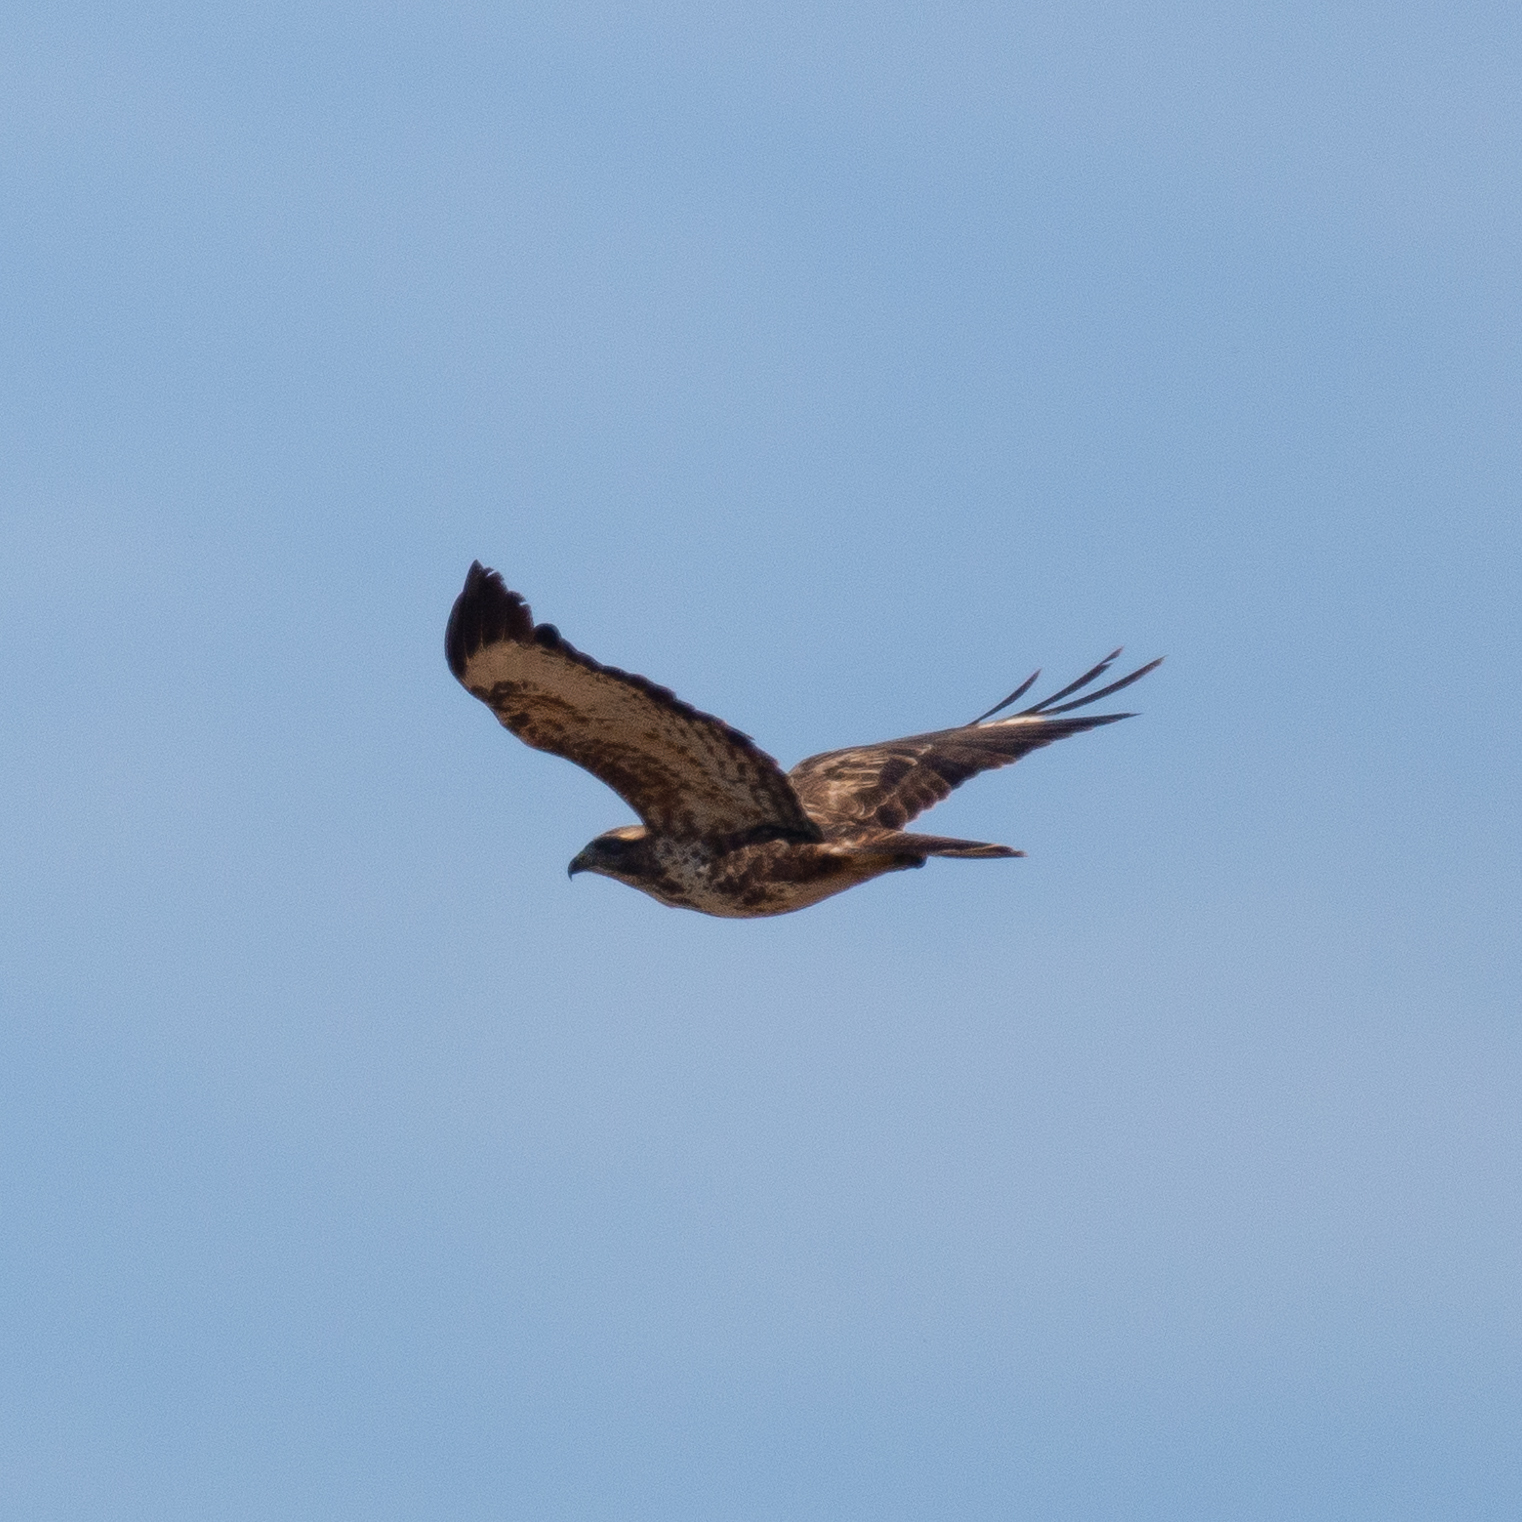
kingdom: Animalia
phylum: Chordata
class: Aves
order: Accipitriformes
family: Accipitridae
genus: Buteo
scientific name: Buteo buteo
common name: Common buzzard
